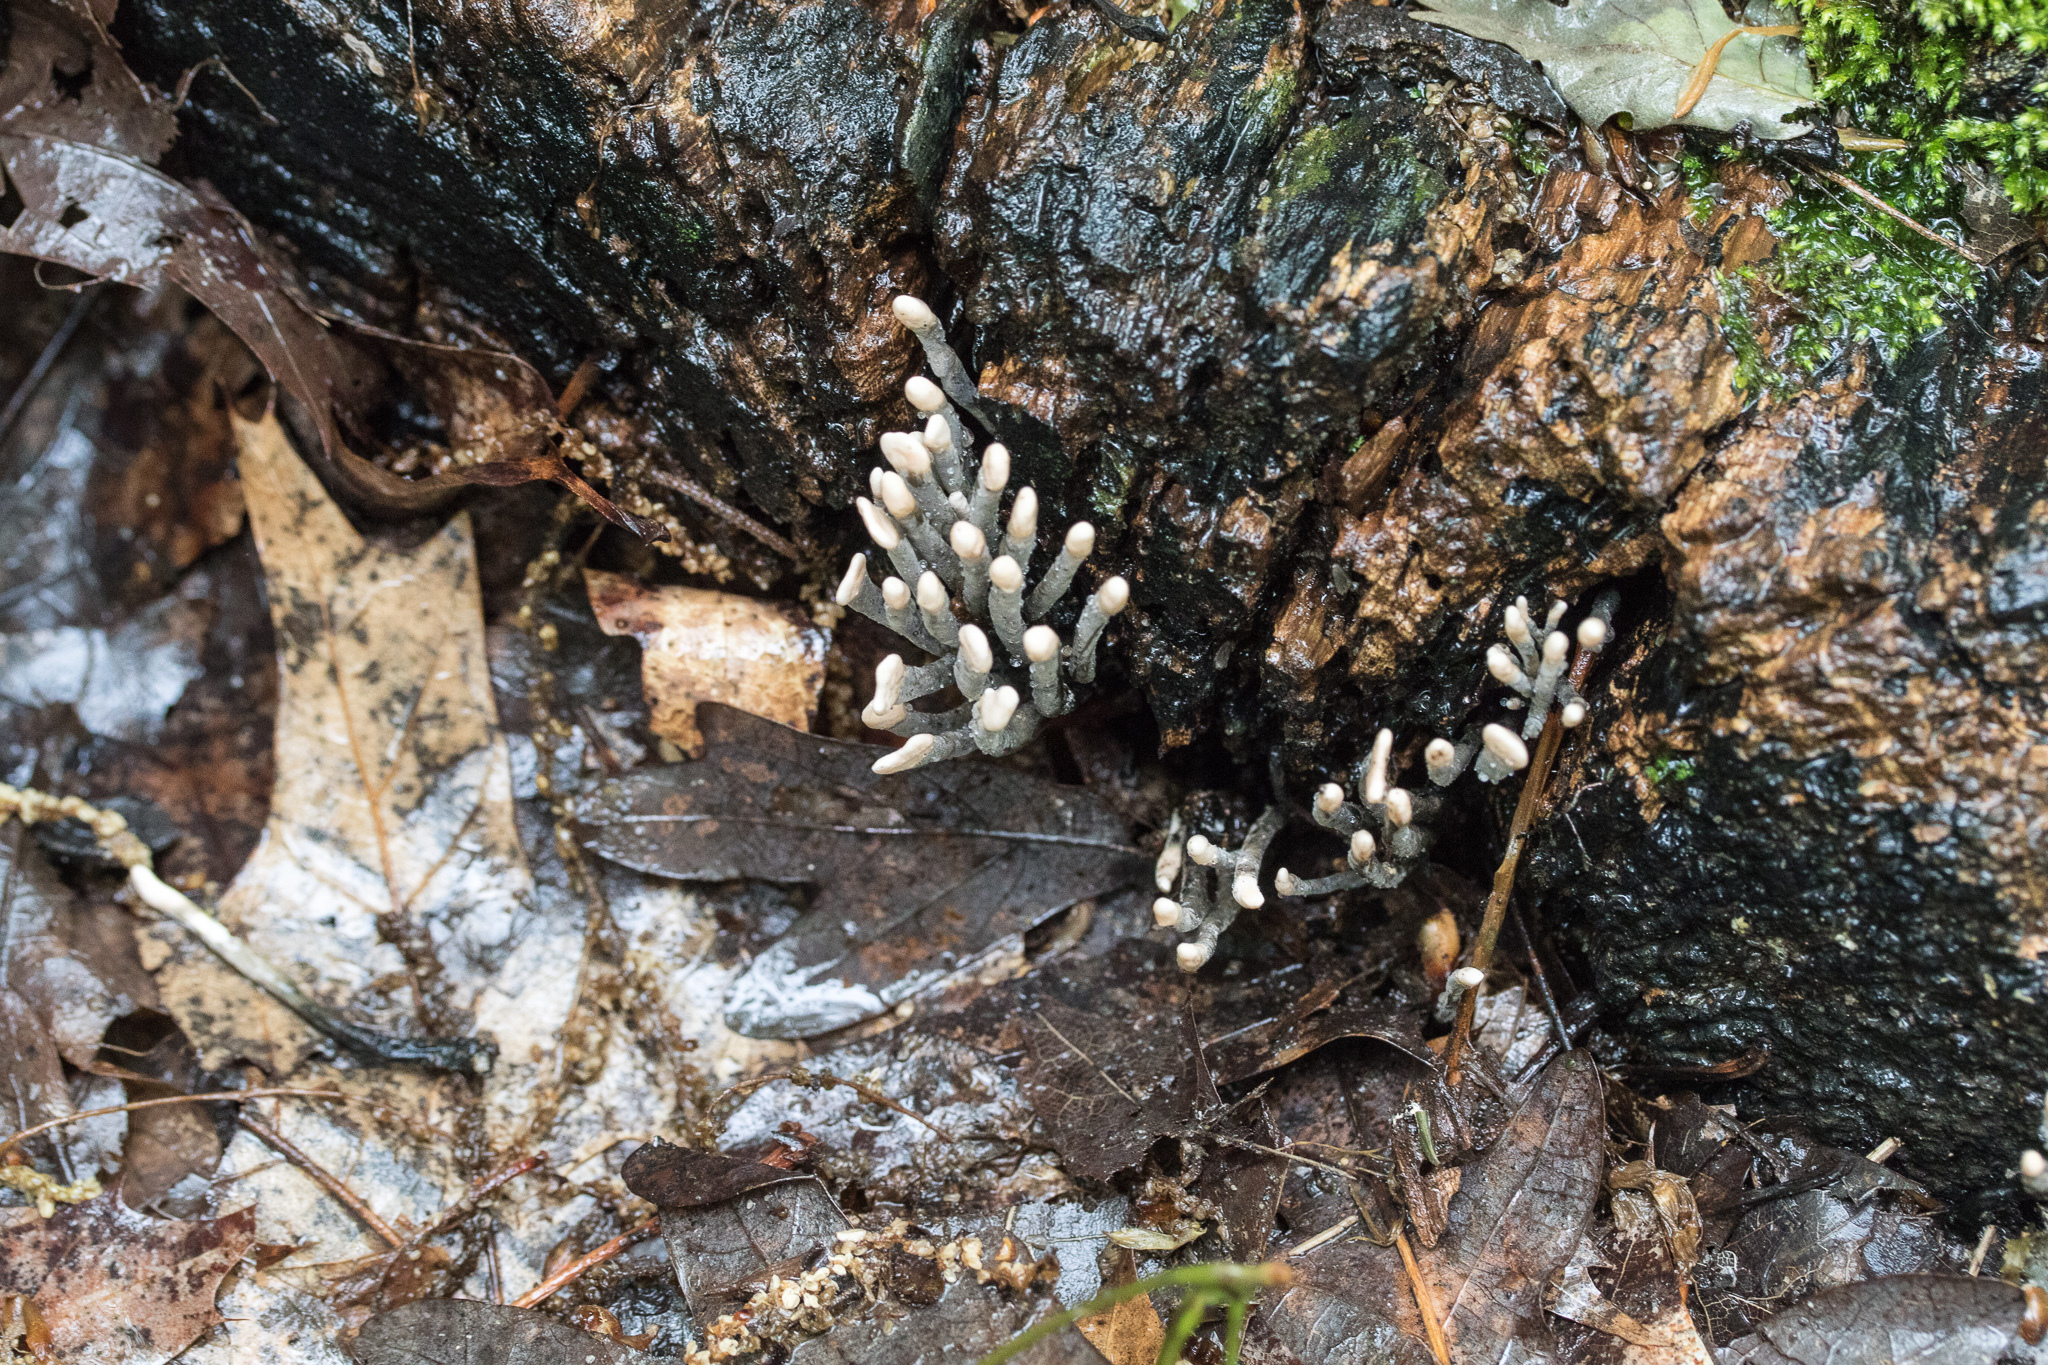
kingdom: Fungi
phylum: Ascomycota
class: Sordariomycetes
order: Xylariales
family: Xylariaceae
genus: Xylaria
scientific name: Xylaria hypoxylon
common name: Candle-snuff fungus
